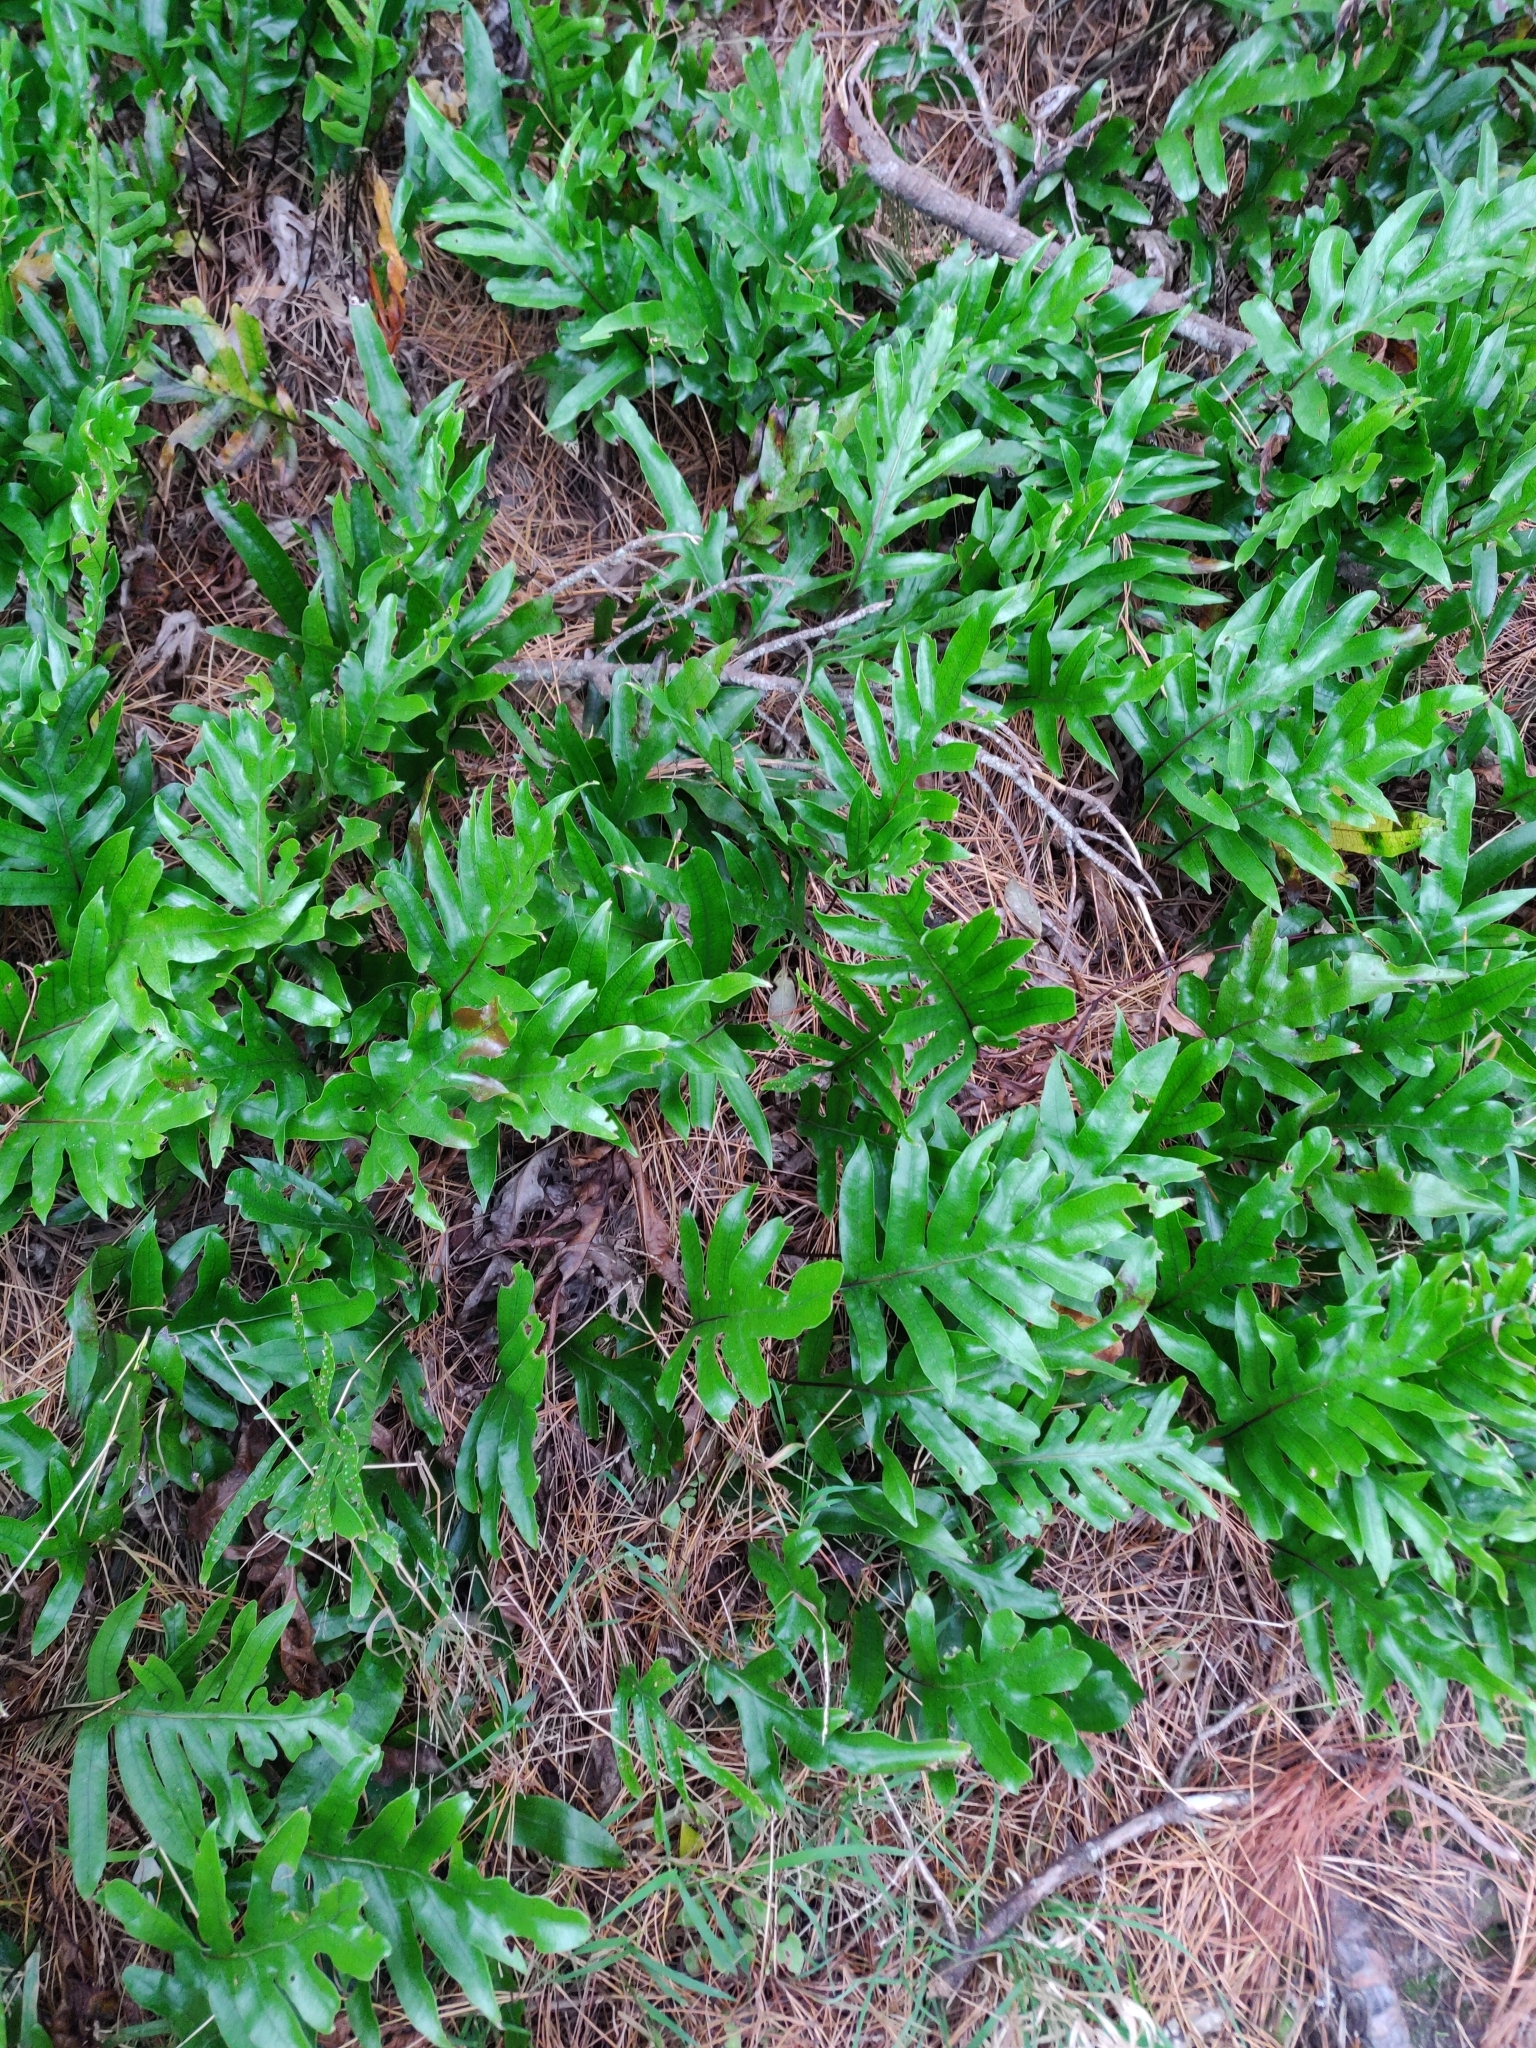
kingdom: Plantae
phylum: Tracheophyta
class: Polypodiopsida
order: Polypodiales
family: Polypodiaceae
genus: Lecanopteris
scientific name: Lecanopteris pustulata
